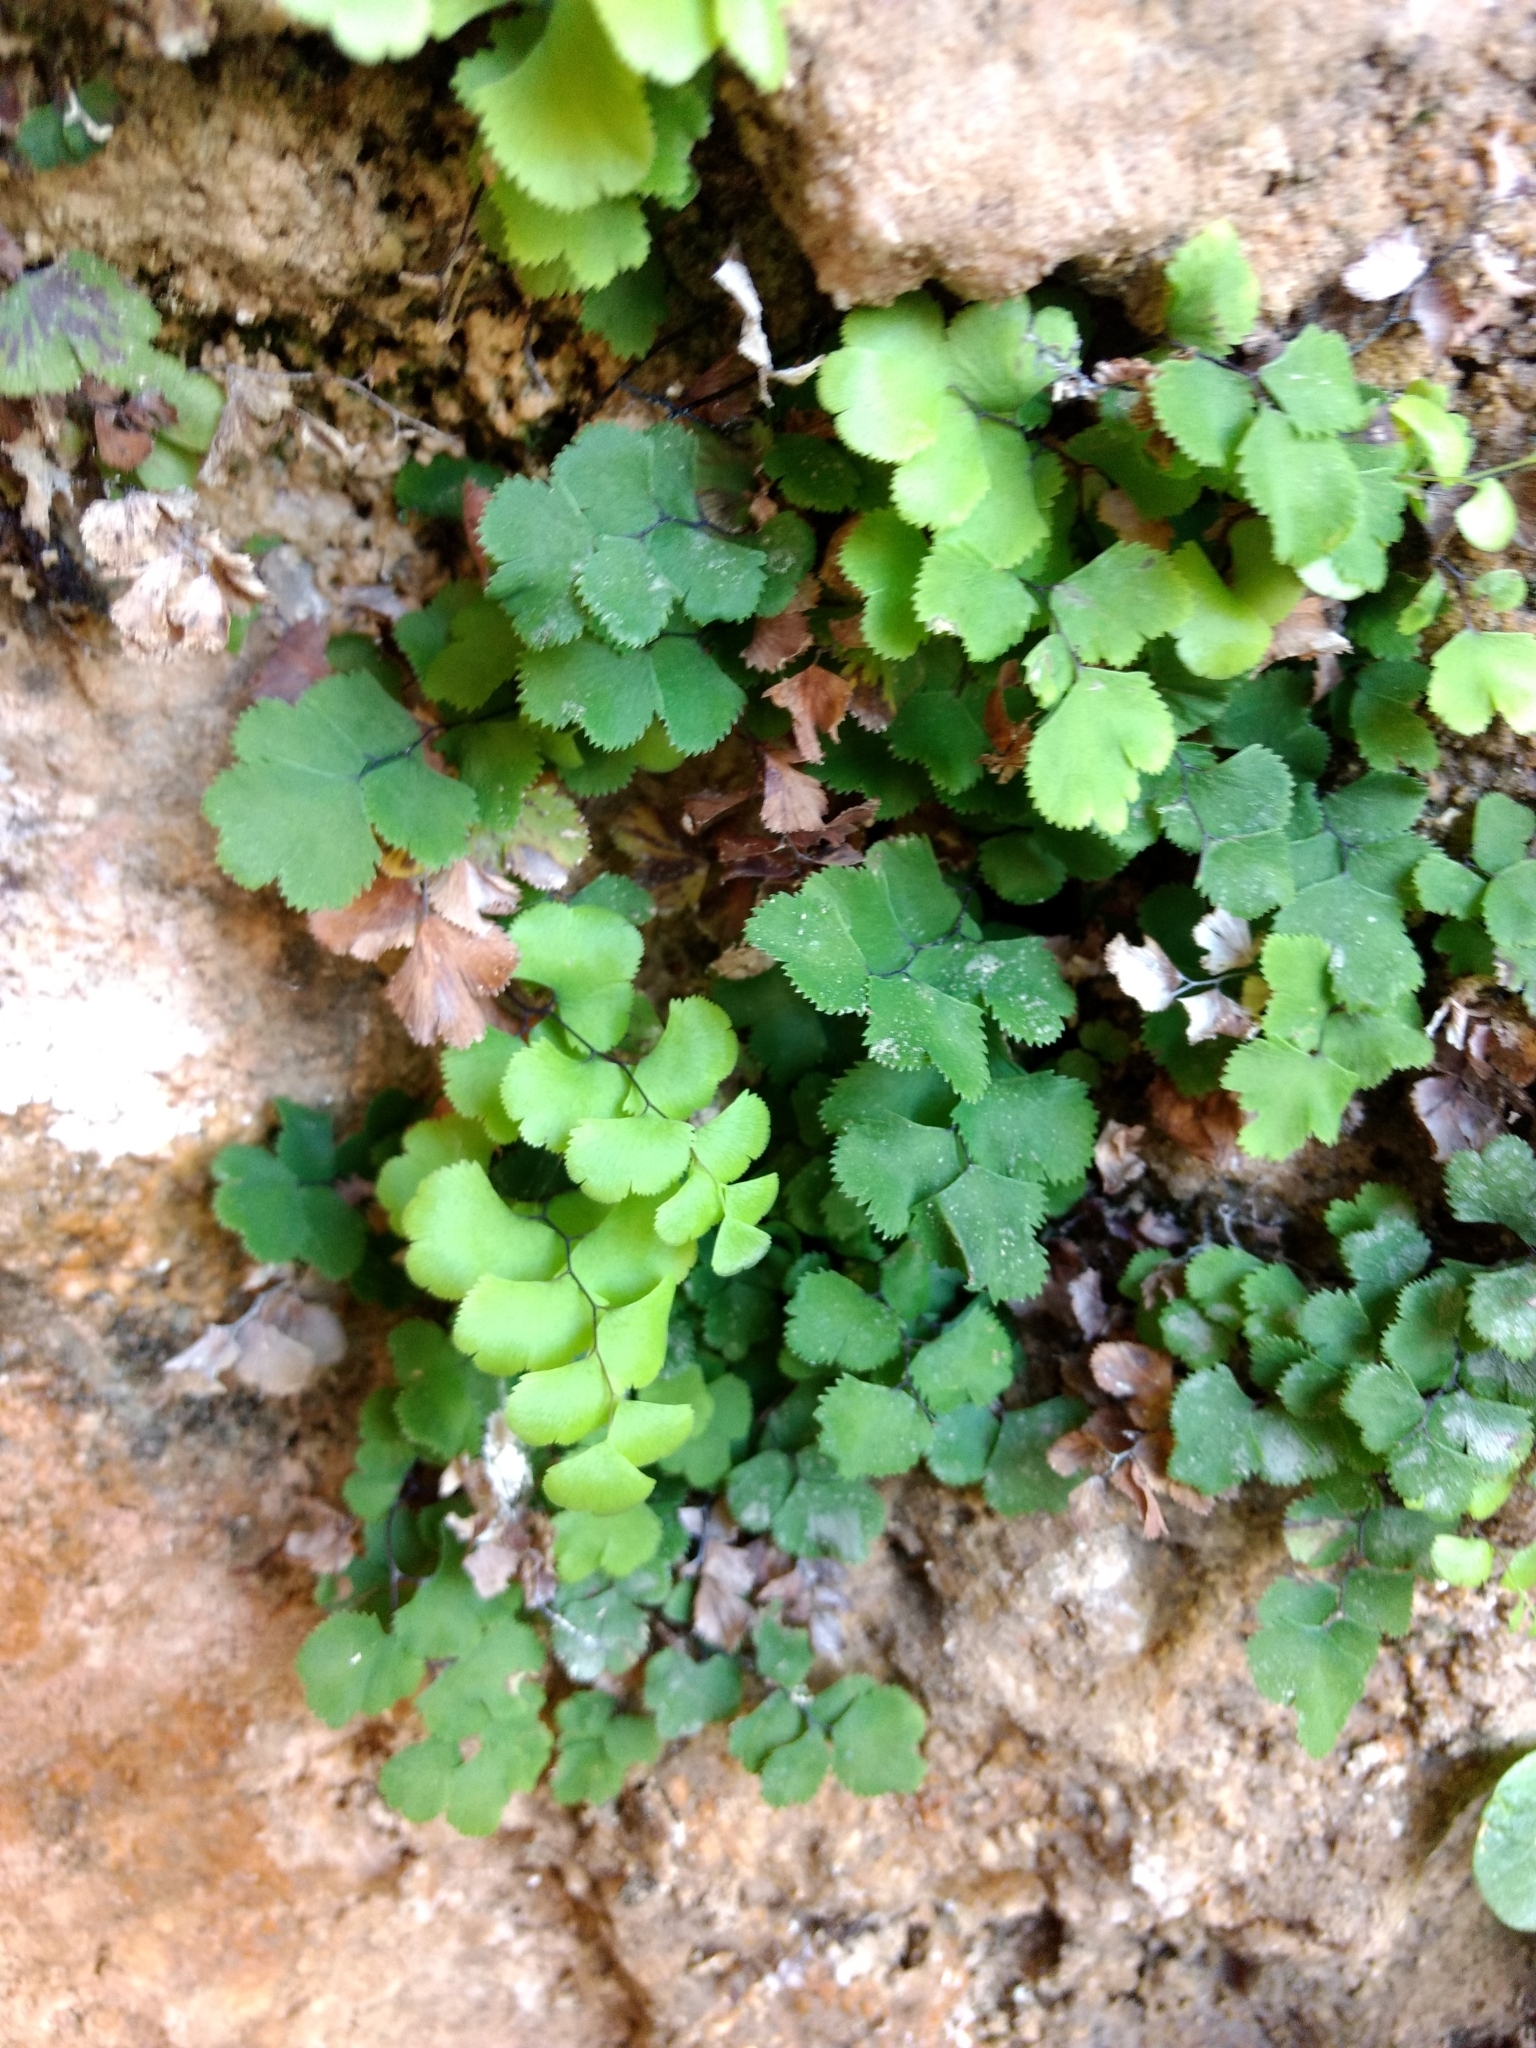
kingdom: Plantae
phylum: Tracheophyta
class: Polypodiopsida
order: Polypodiales
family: Pteridaceae
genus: Adiantum
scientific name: Adiantum capillus-veneris
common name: Maidenhair fern
